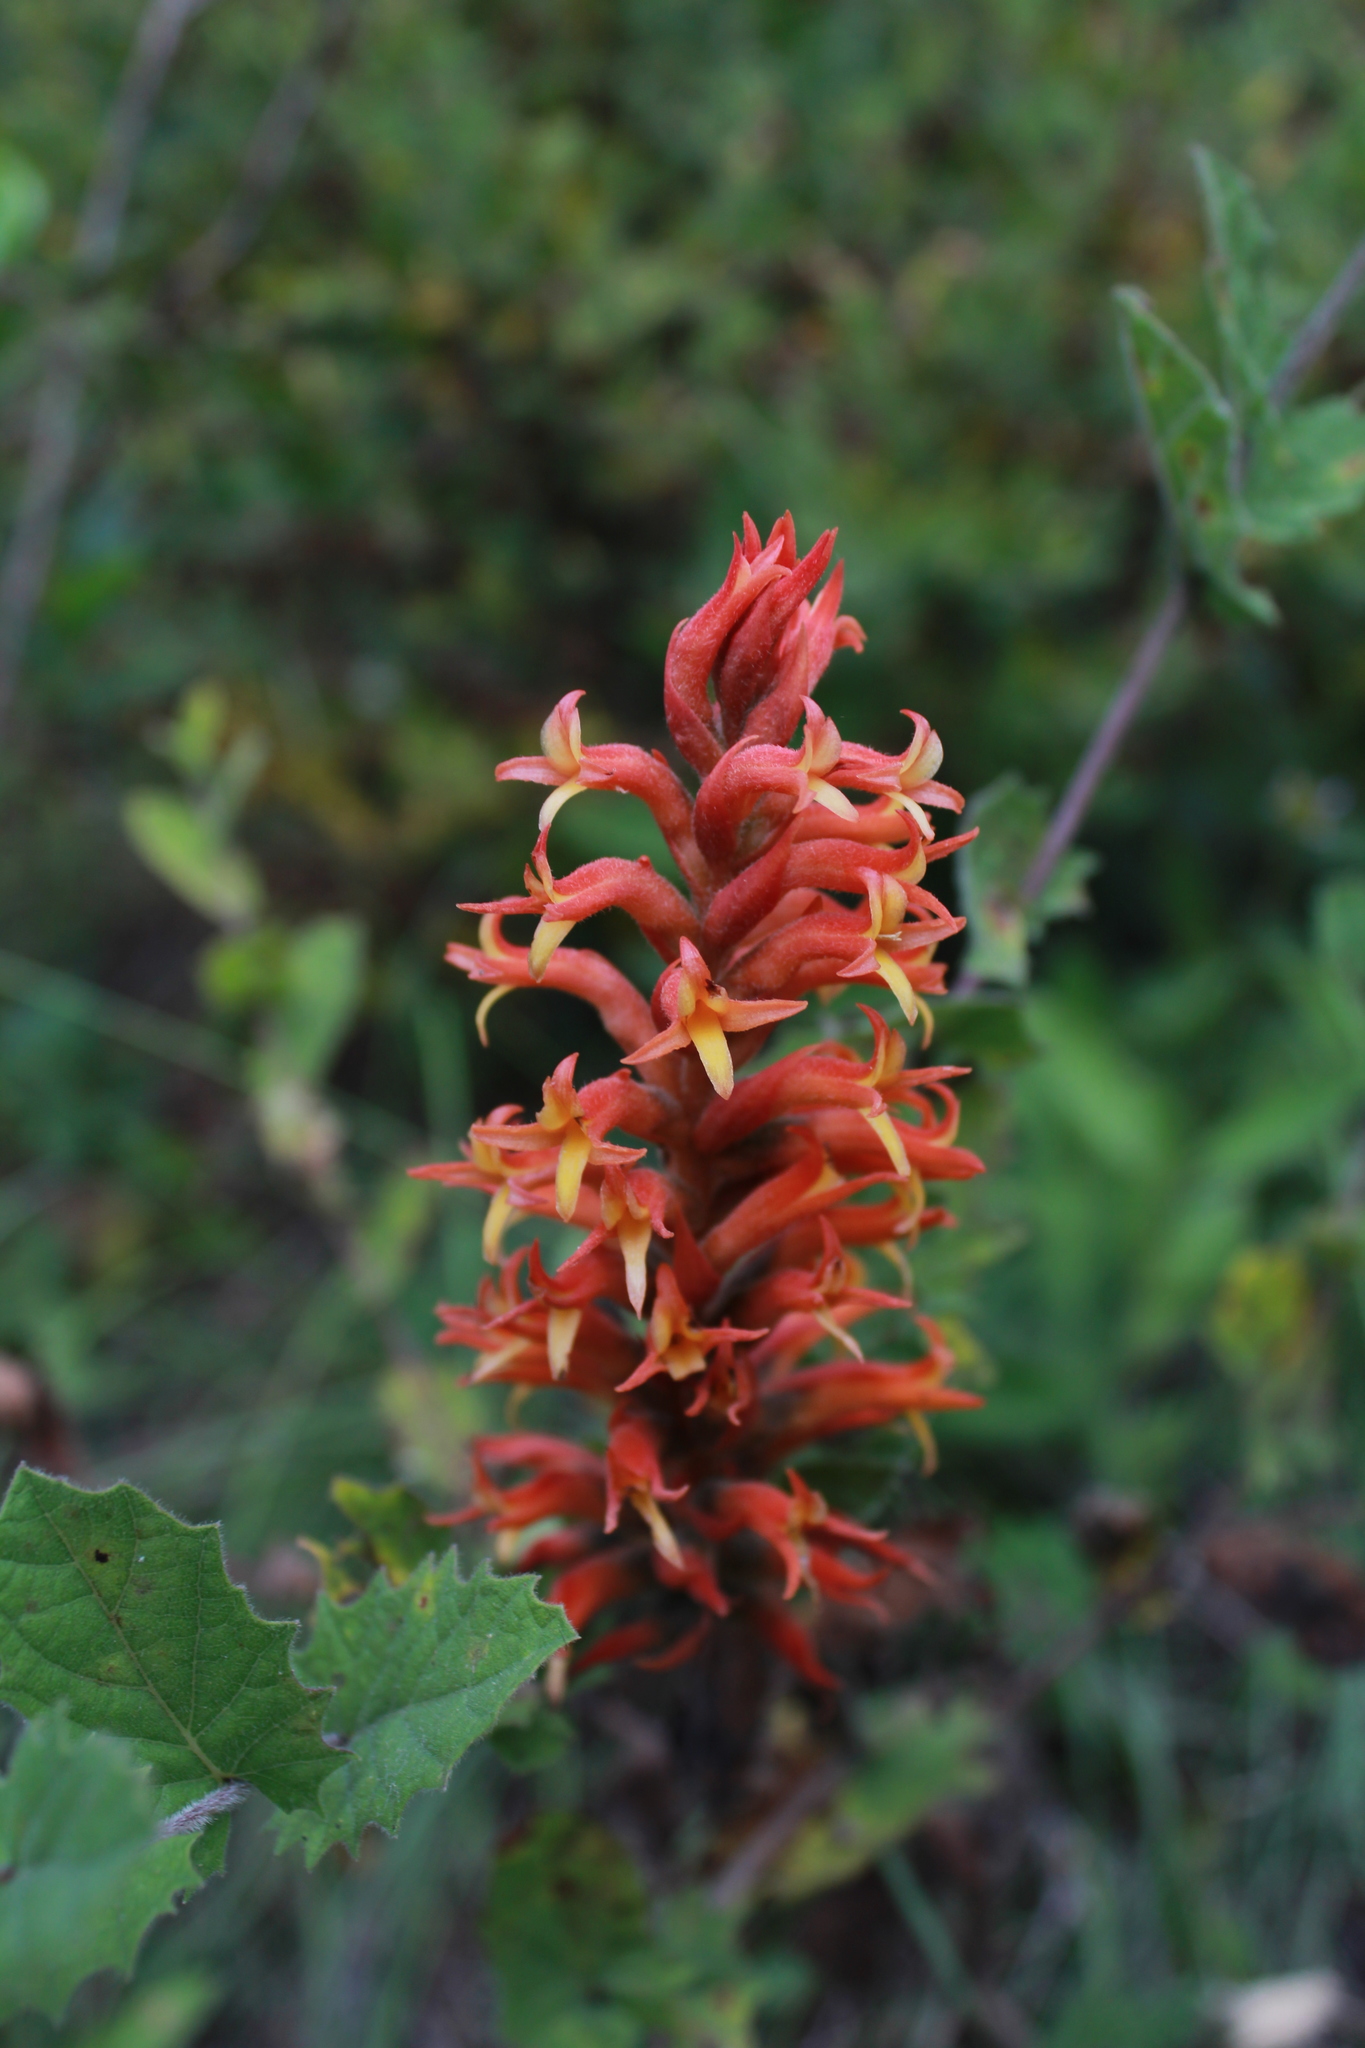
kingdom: Plantae
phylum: Tracheophyta
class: Liliopsida
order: Asparagales
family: Orchidaceae
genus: Dichromanthus
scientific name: Dichromanthus cinnabarinus
